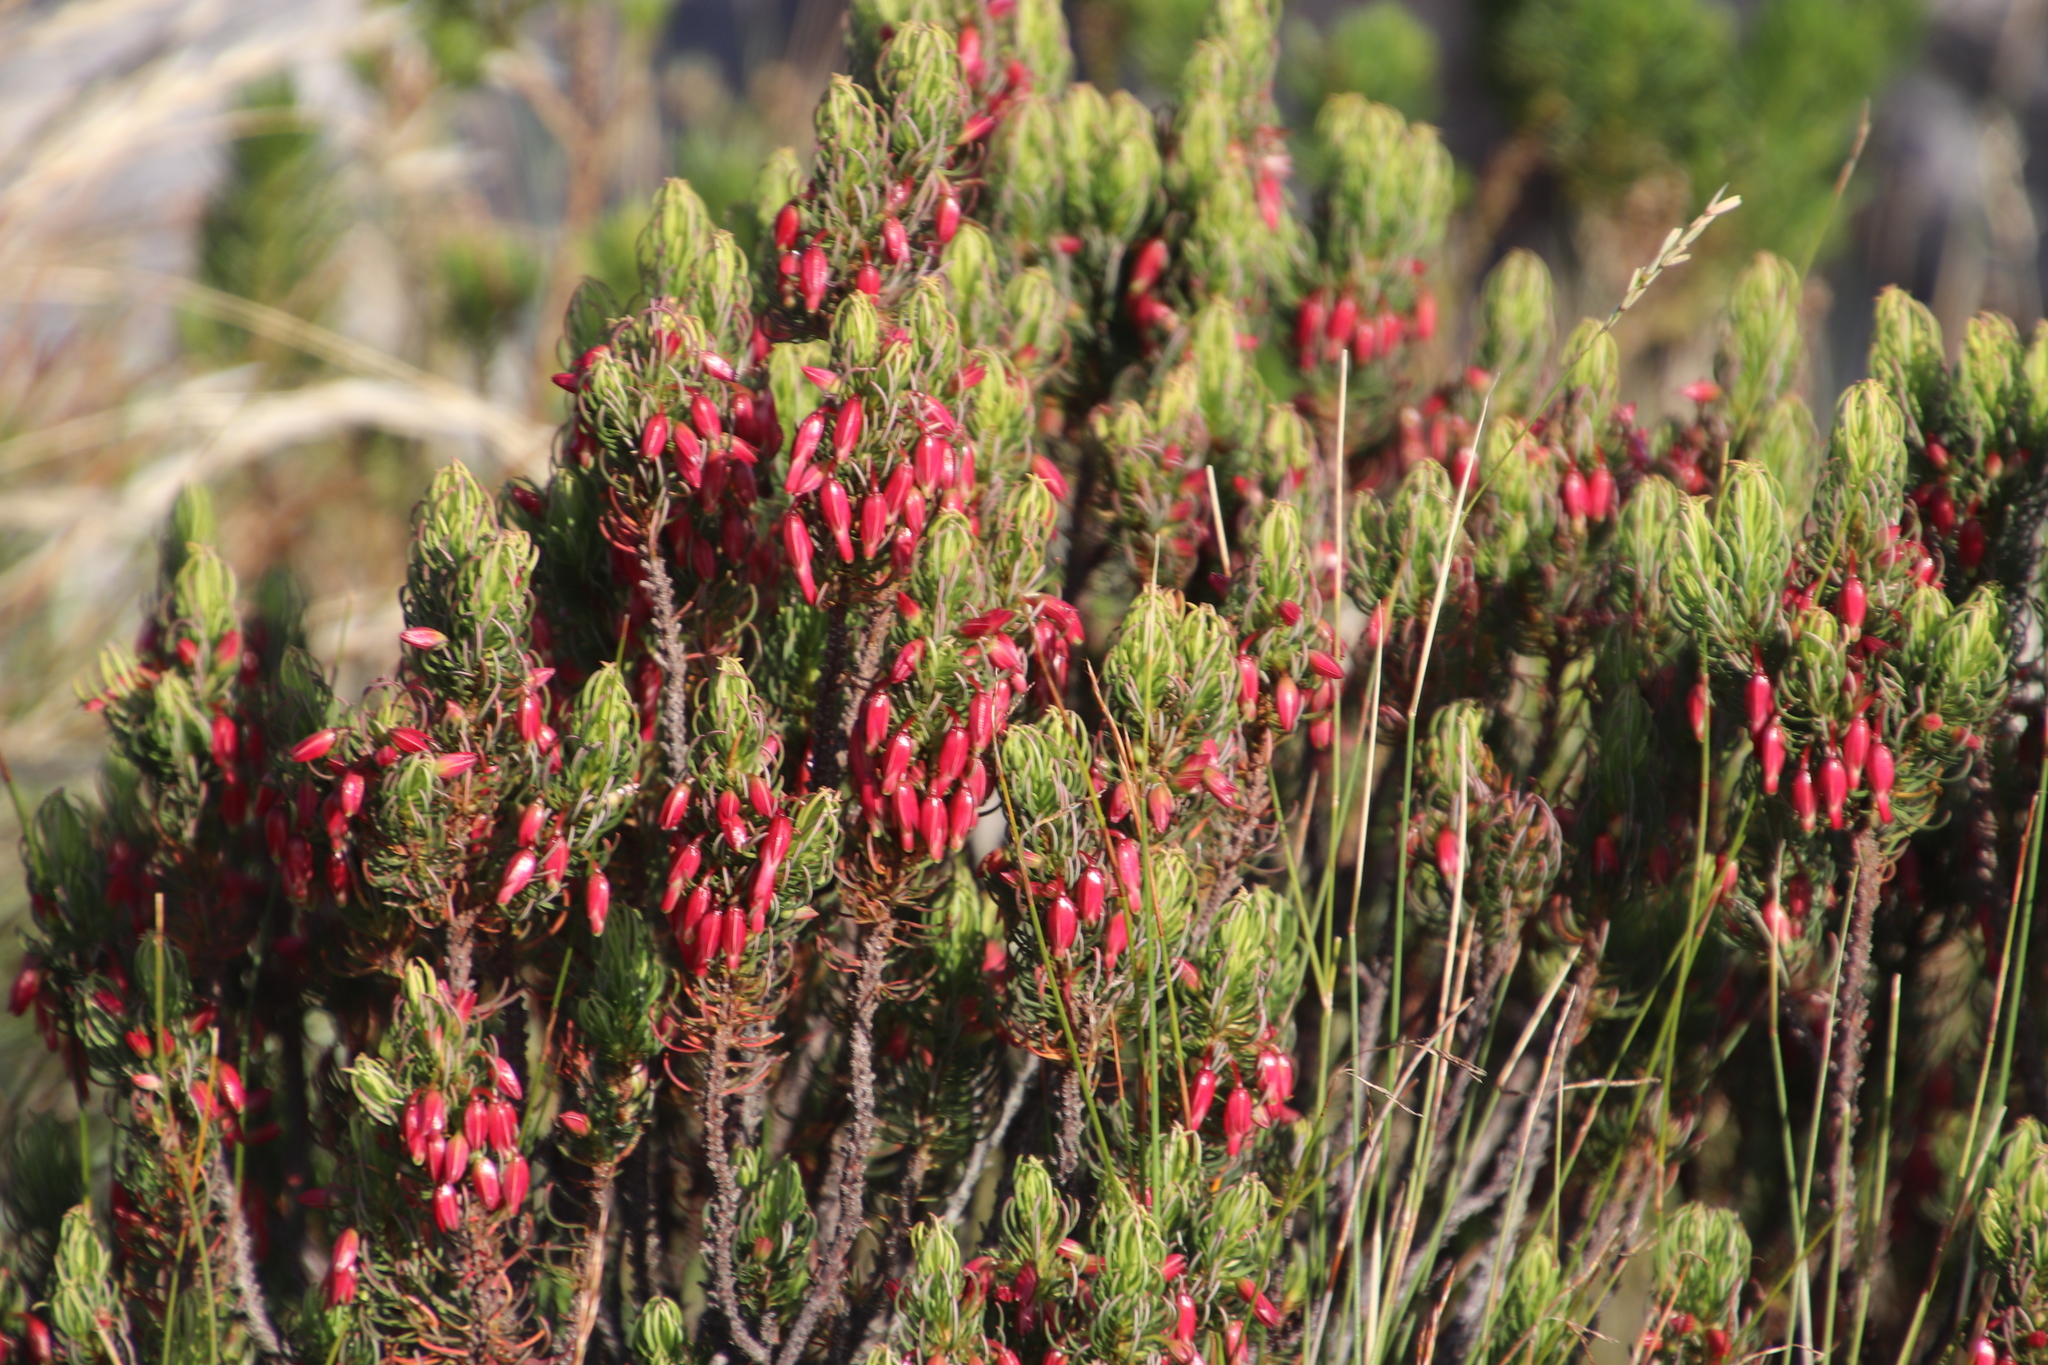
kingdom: Plantae
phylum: Tracheophyta
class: Magnoliopsida
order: Ericales
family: Ericaceae
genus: Erica
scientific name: Erica plukenetii
